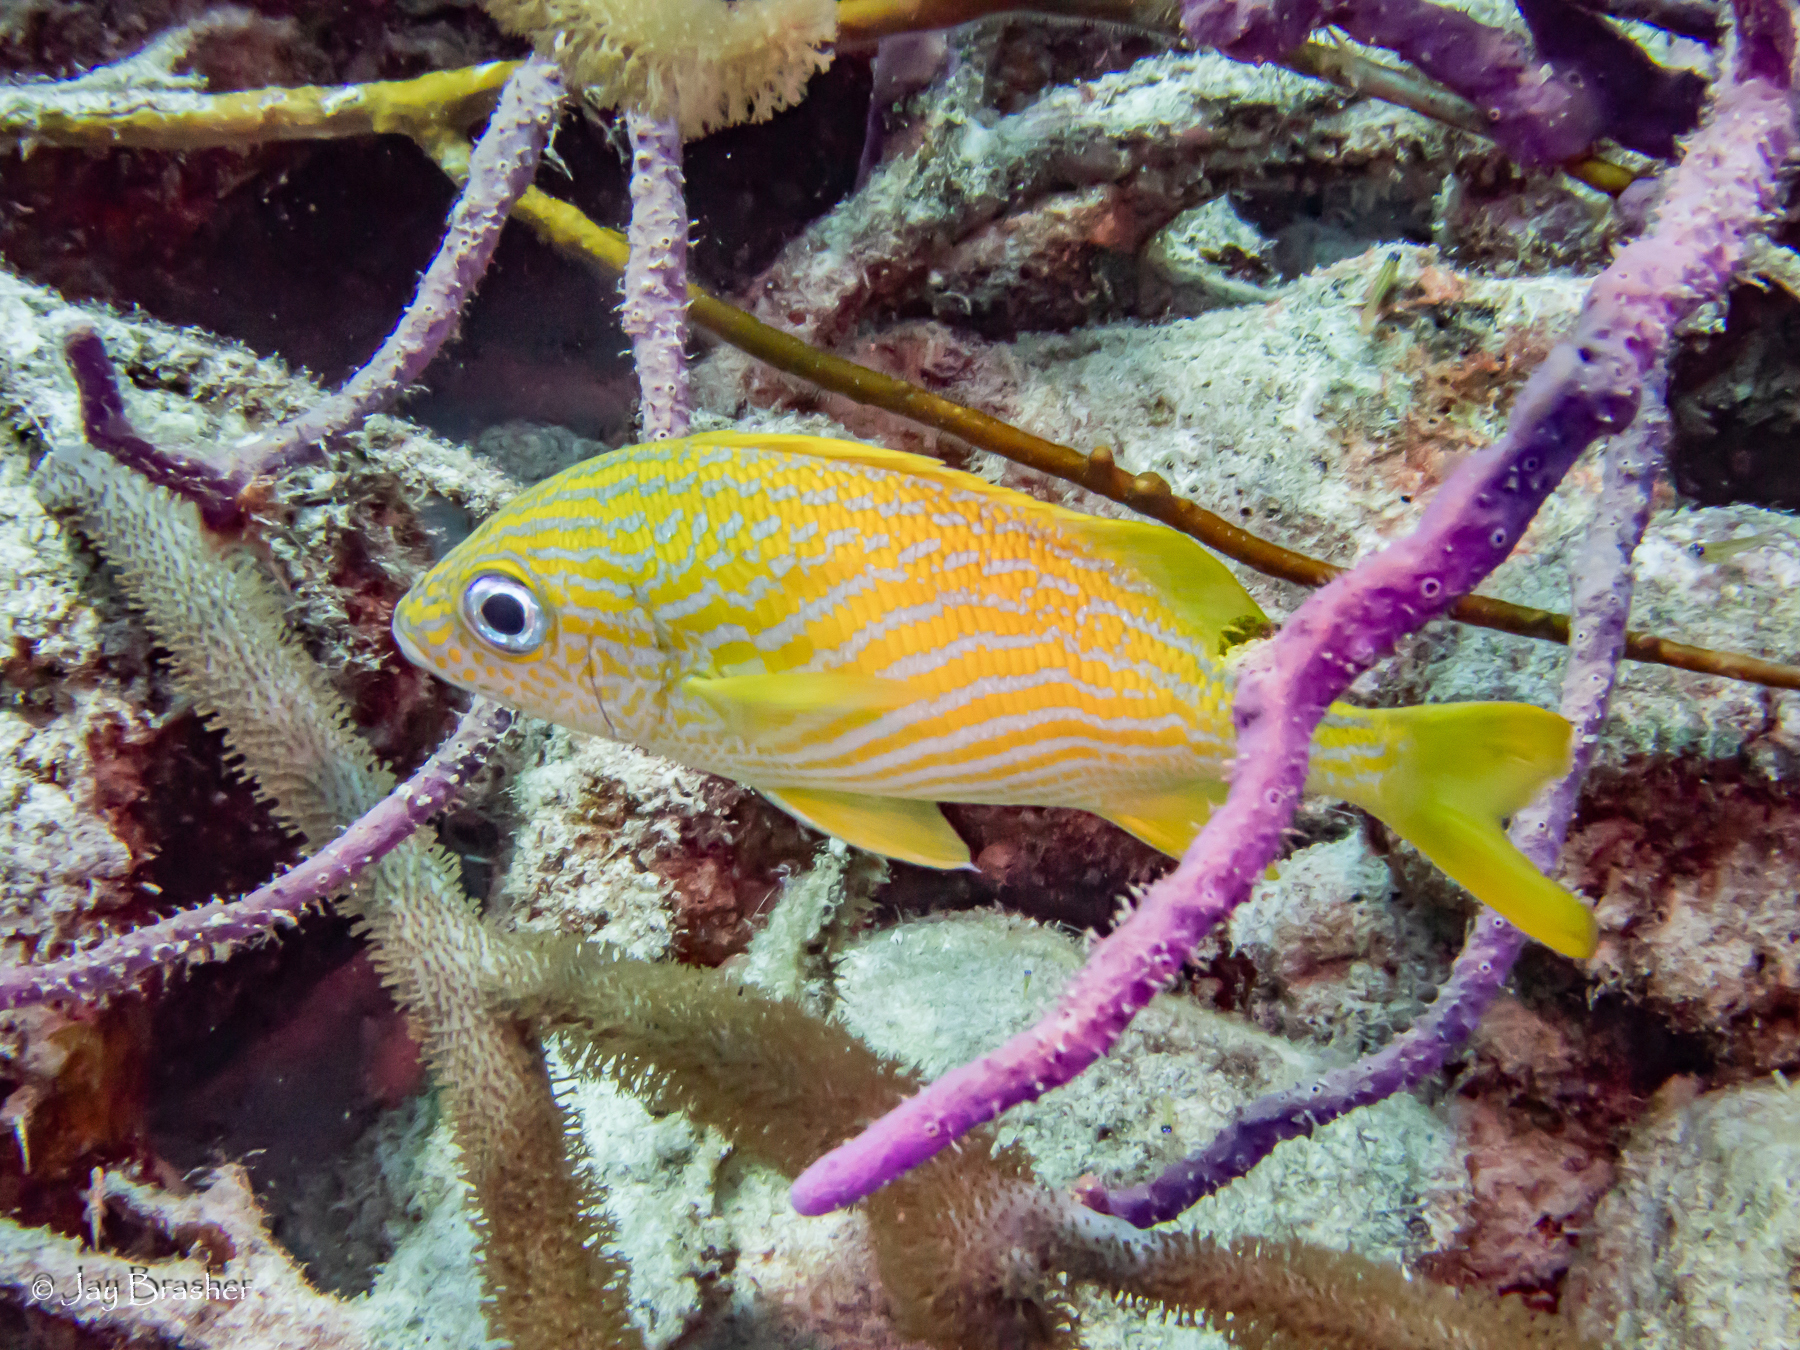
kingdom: Animalia
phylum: Chordata
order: Perciformes
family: Haemulidae
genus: Haemulon
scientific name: Haemulon flavolineatum
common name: French grunt
